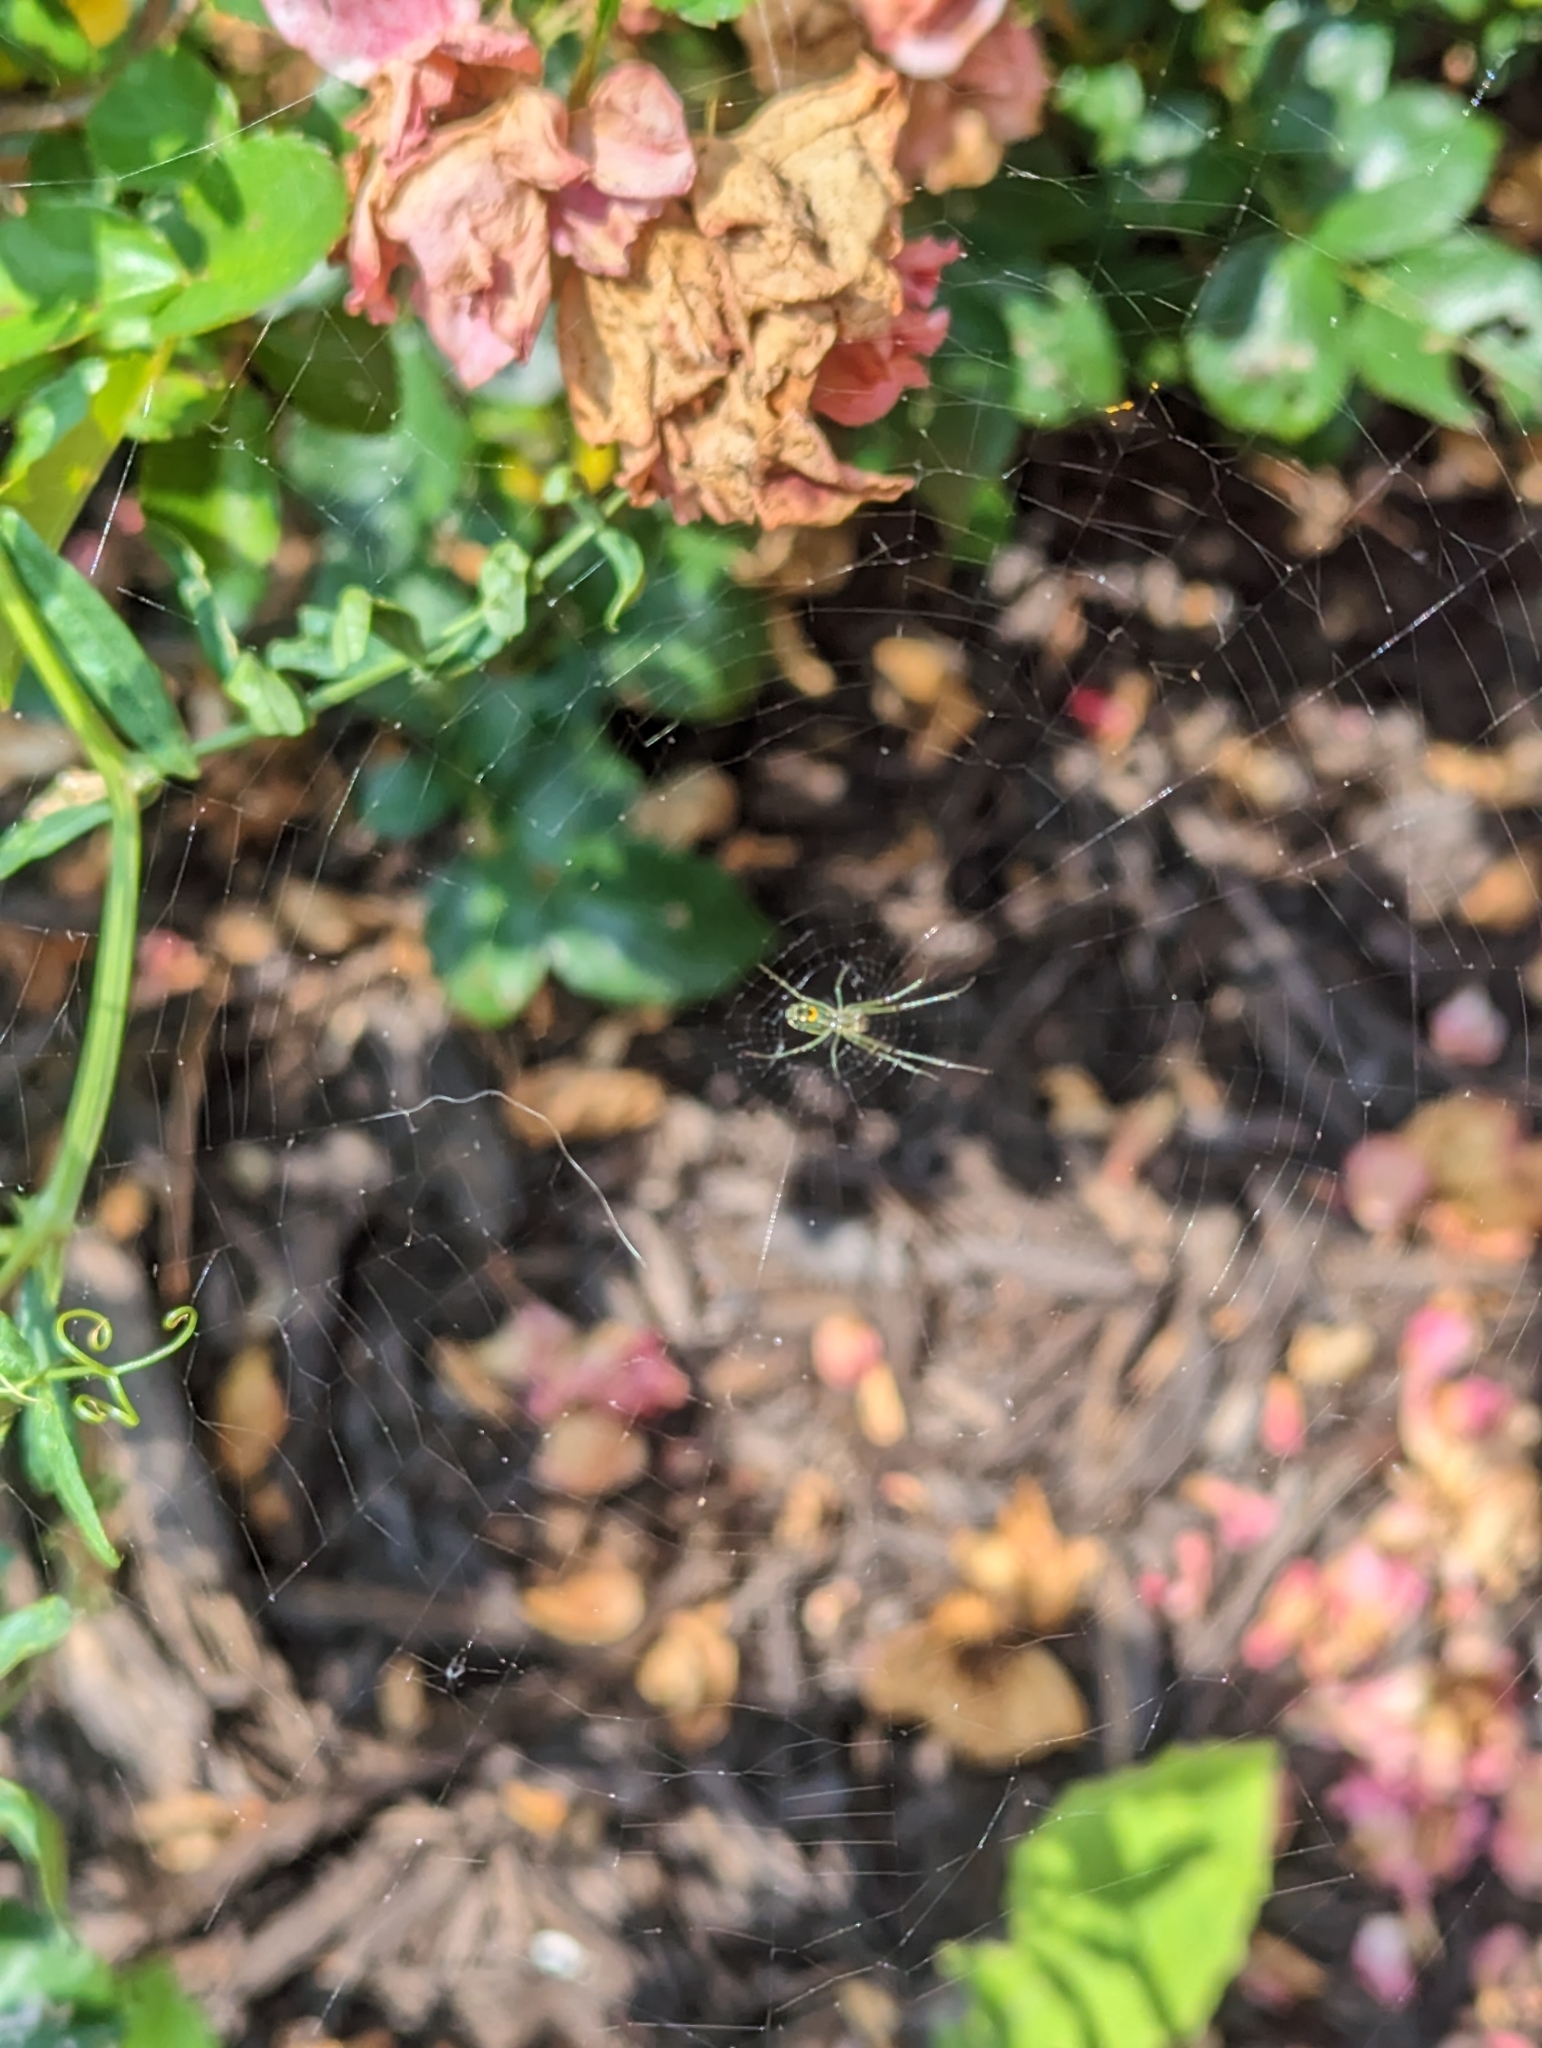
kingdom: Animalia
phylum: Arthropoda
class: Arachnida
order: Araneae
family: Tetragnathidae
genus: Leucauge
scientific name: Leucauge venusta
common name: Longjawed orb weavers
